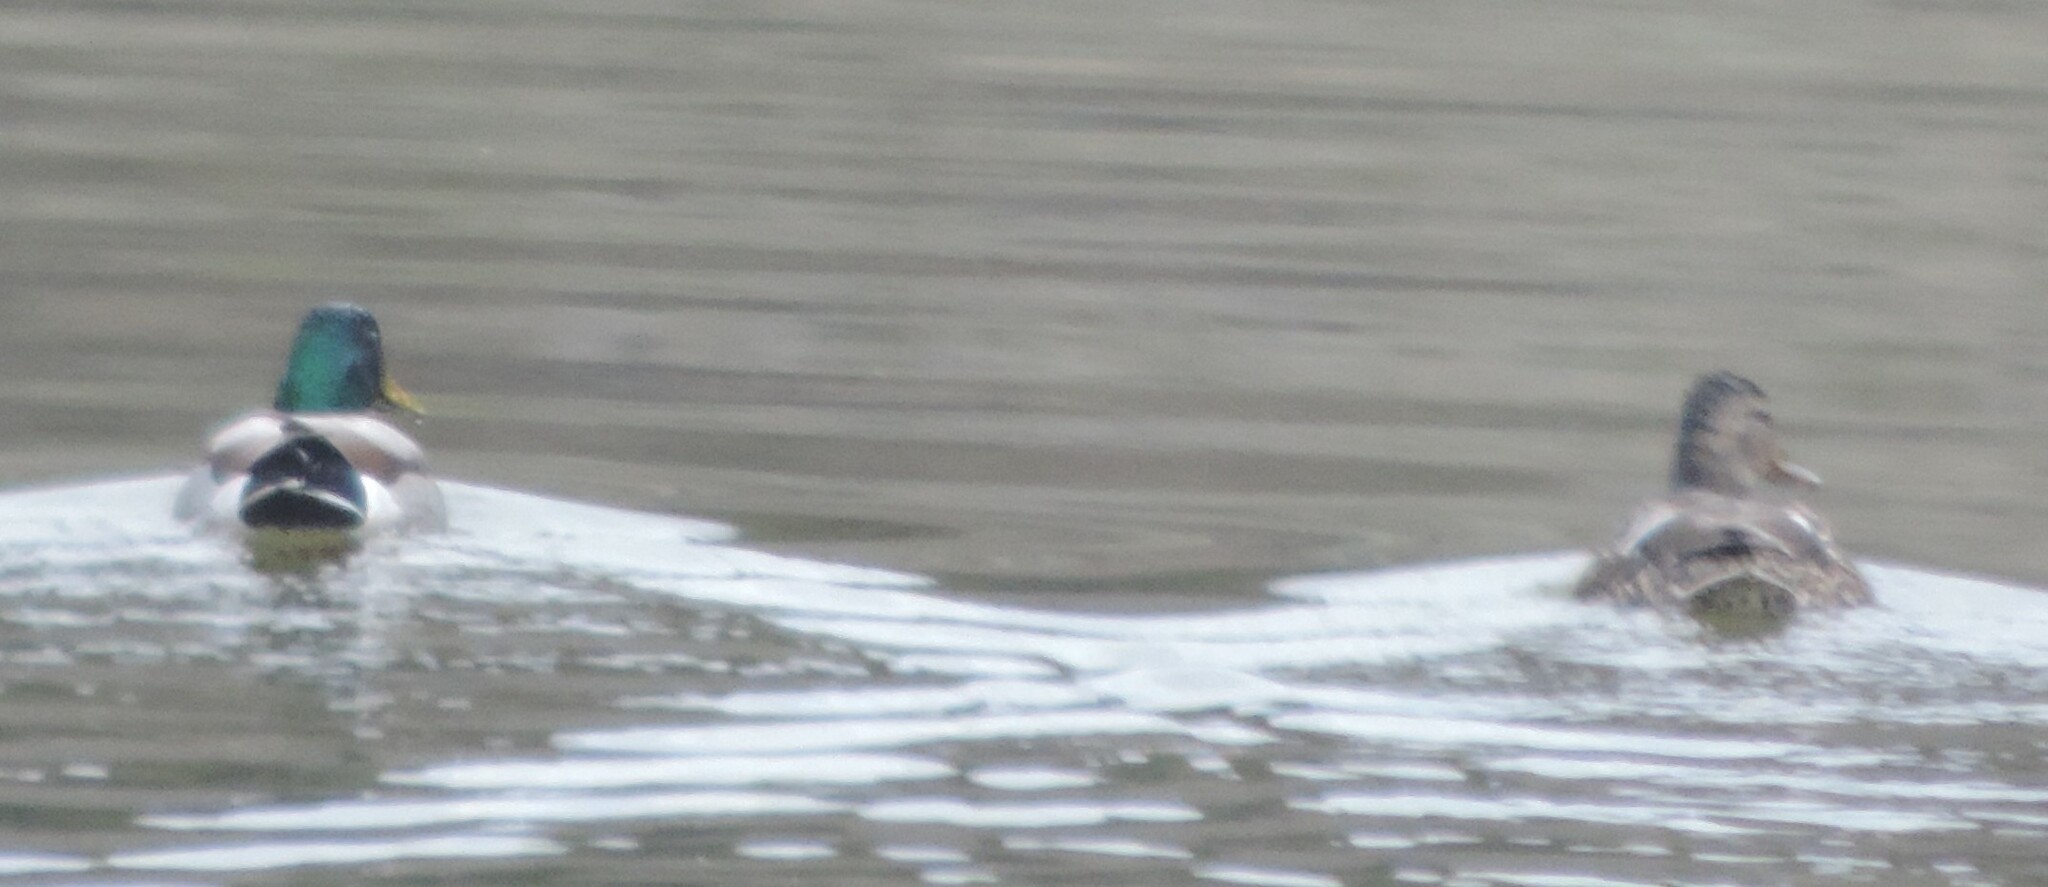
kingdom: Animalia
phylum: Chordata
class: Aves
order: Anseriformes
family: Anatidae
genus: Anas
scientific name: Anas platyrhynchos
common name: Mallard
